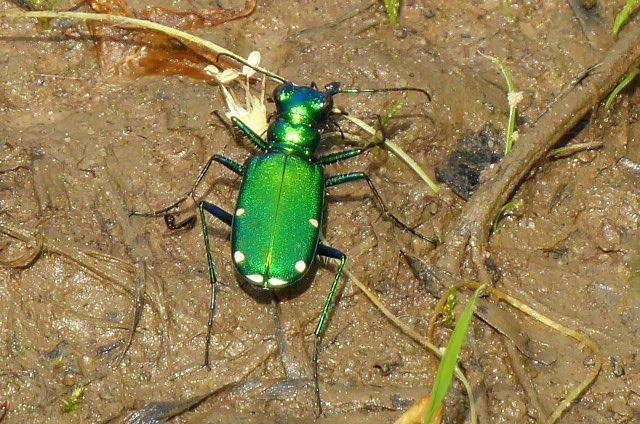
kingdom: Animalia
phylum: Arthropoda
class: Insecta
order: Coleoptera
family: Carabidae
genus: Cicindela
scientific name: Cicindela sexguttata
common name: Six-spotted tiger beetle
